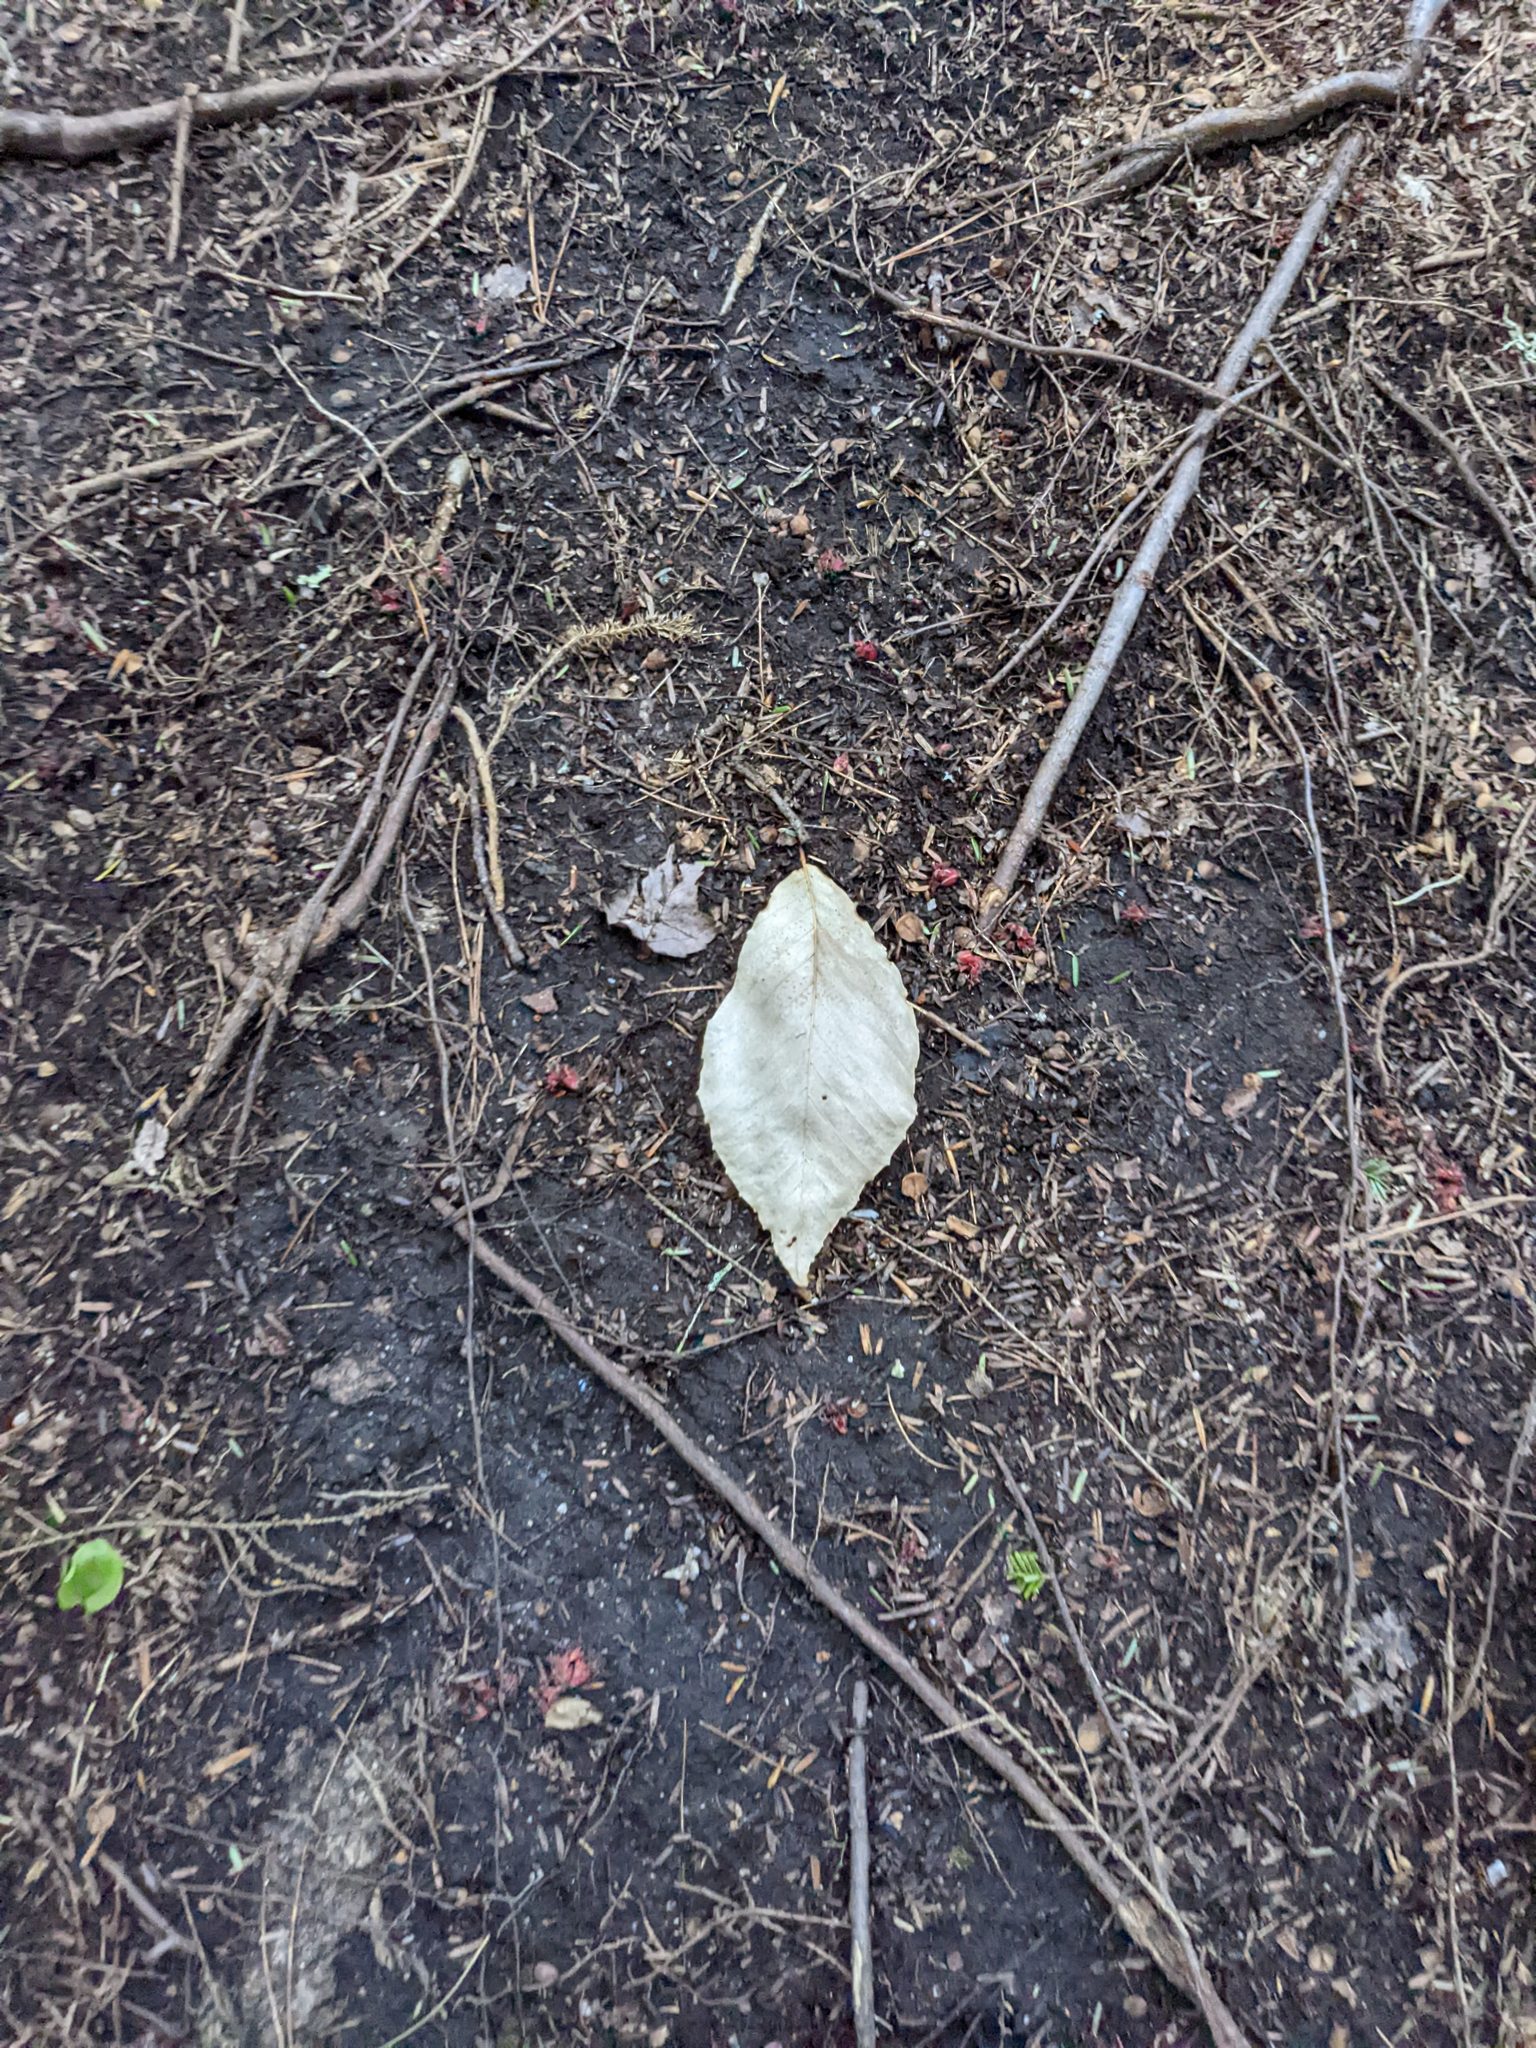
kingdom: Plantae
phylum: Tracheophyta
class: Magnoliopsida
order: Fagales
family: Fagaceae
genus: Fagus
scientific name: Fagus grandifolia
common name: American beech
